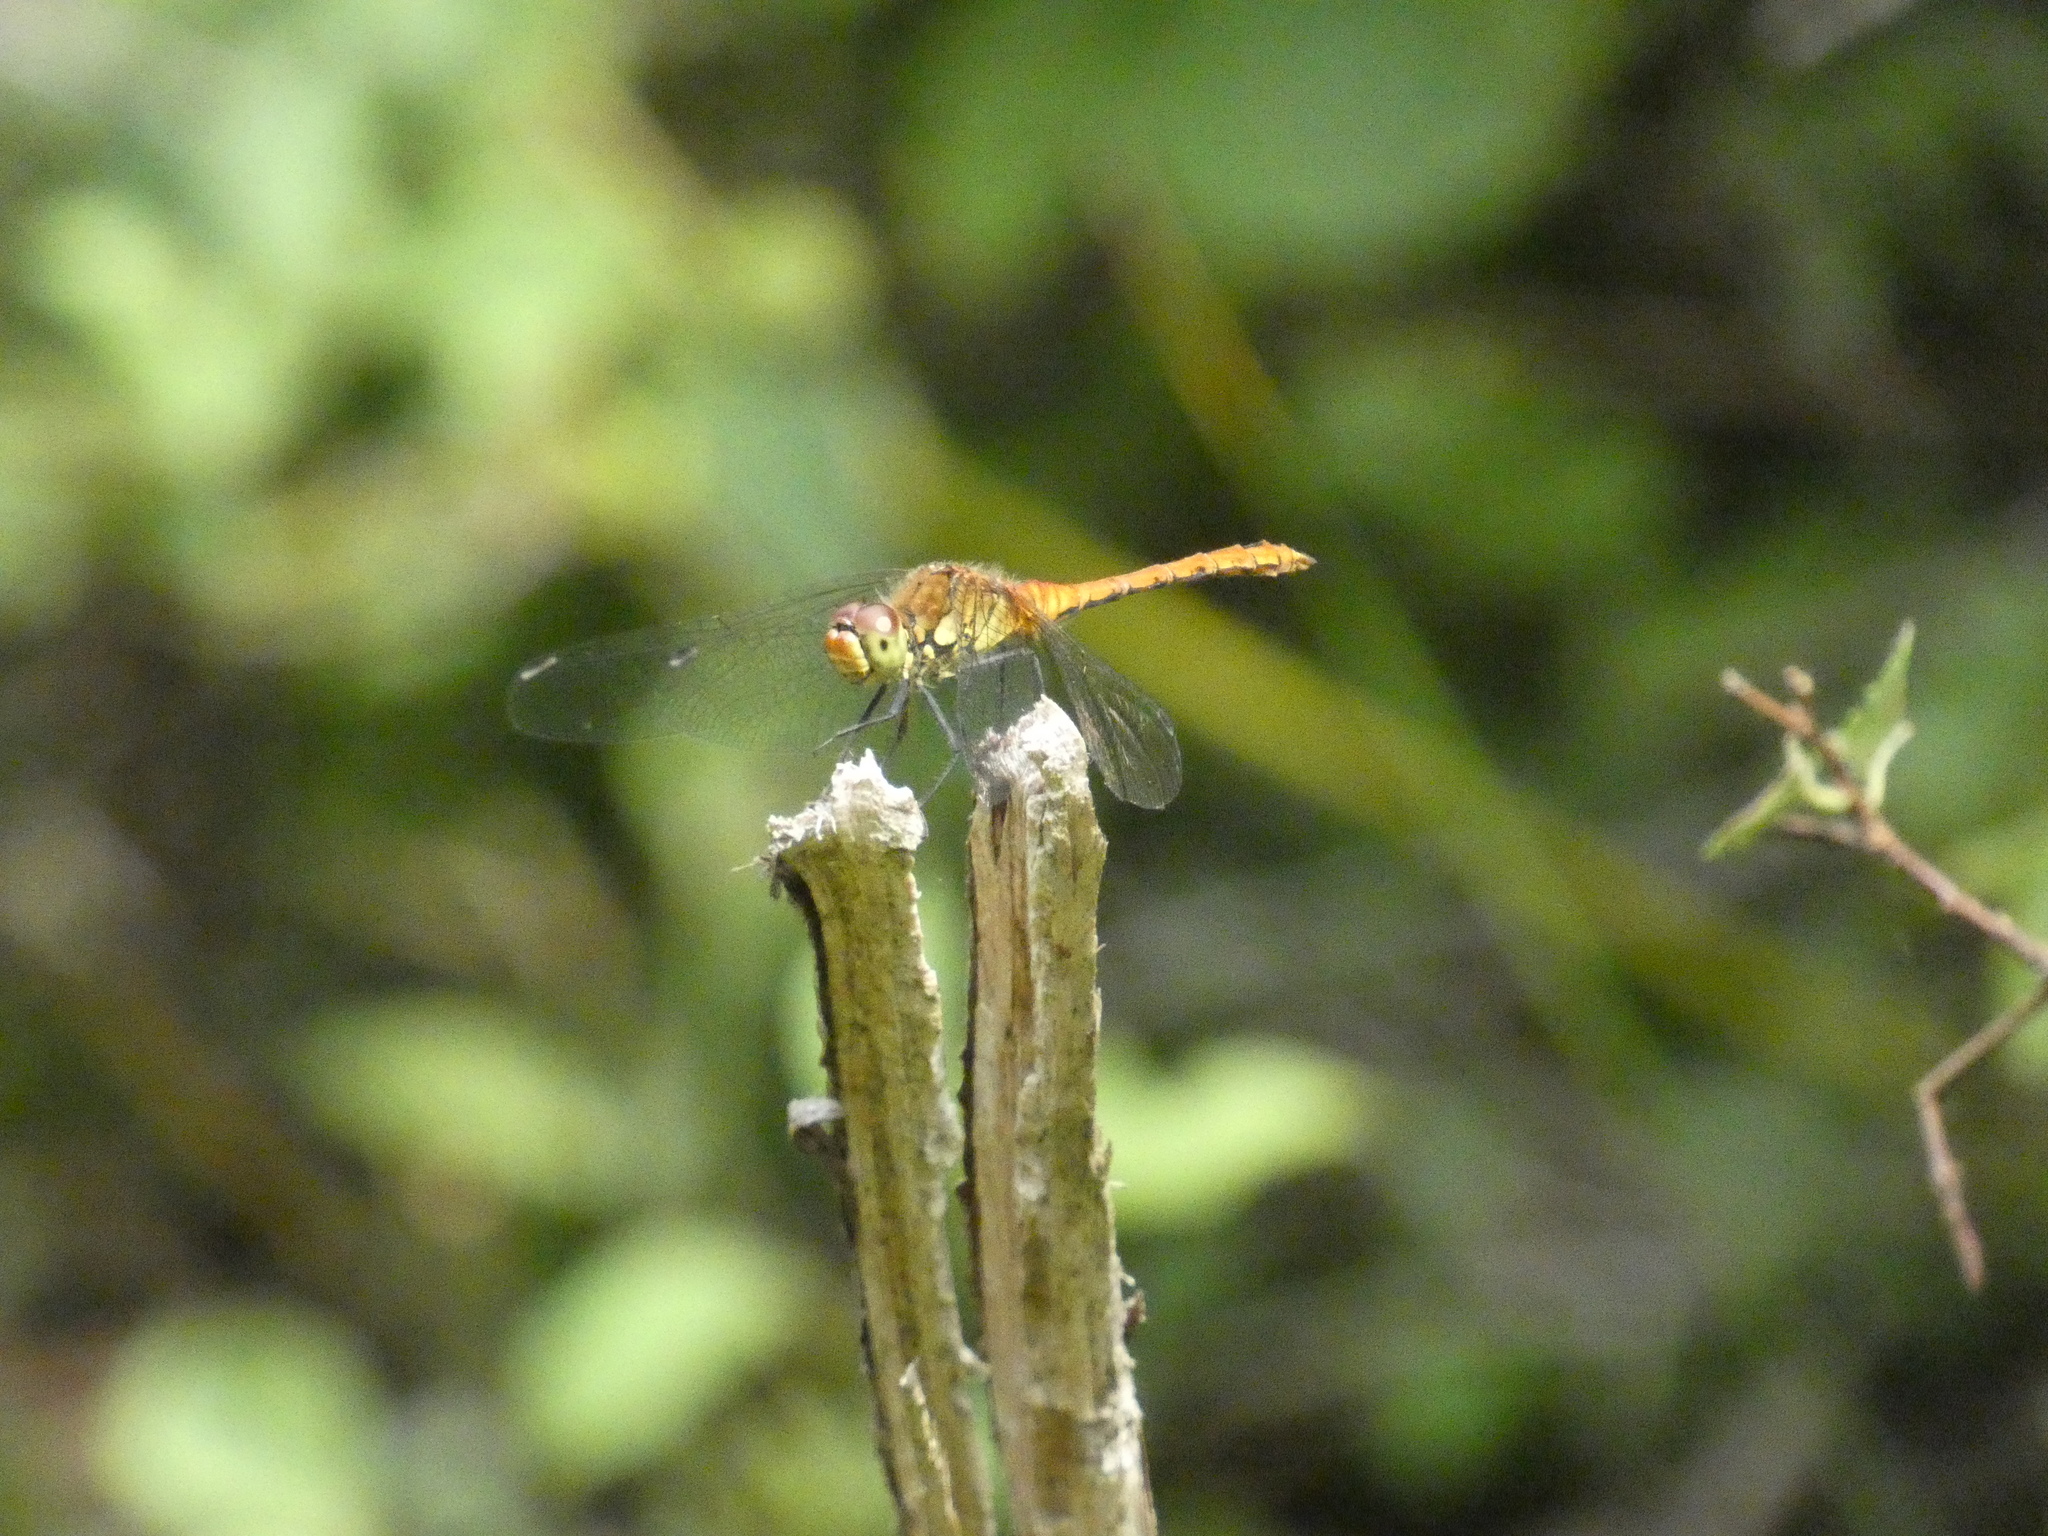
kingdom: Animalia
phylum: Arthropoda
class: Insecta
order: Odonata
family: Libellulidae
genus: Sympetrum
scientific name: Sympetrum sanguineum
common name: Ruddy darter
